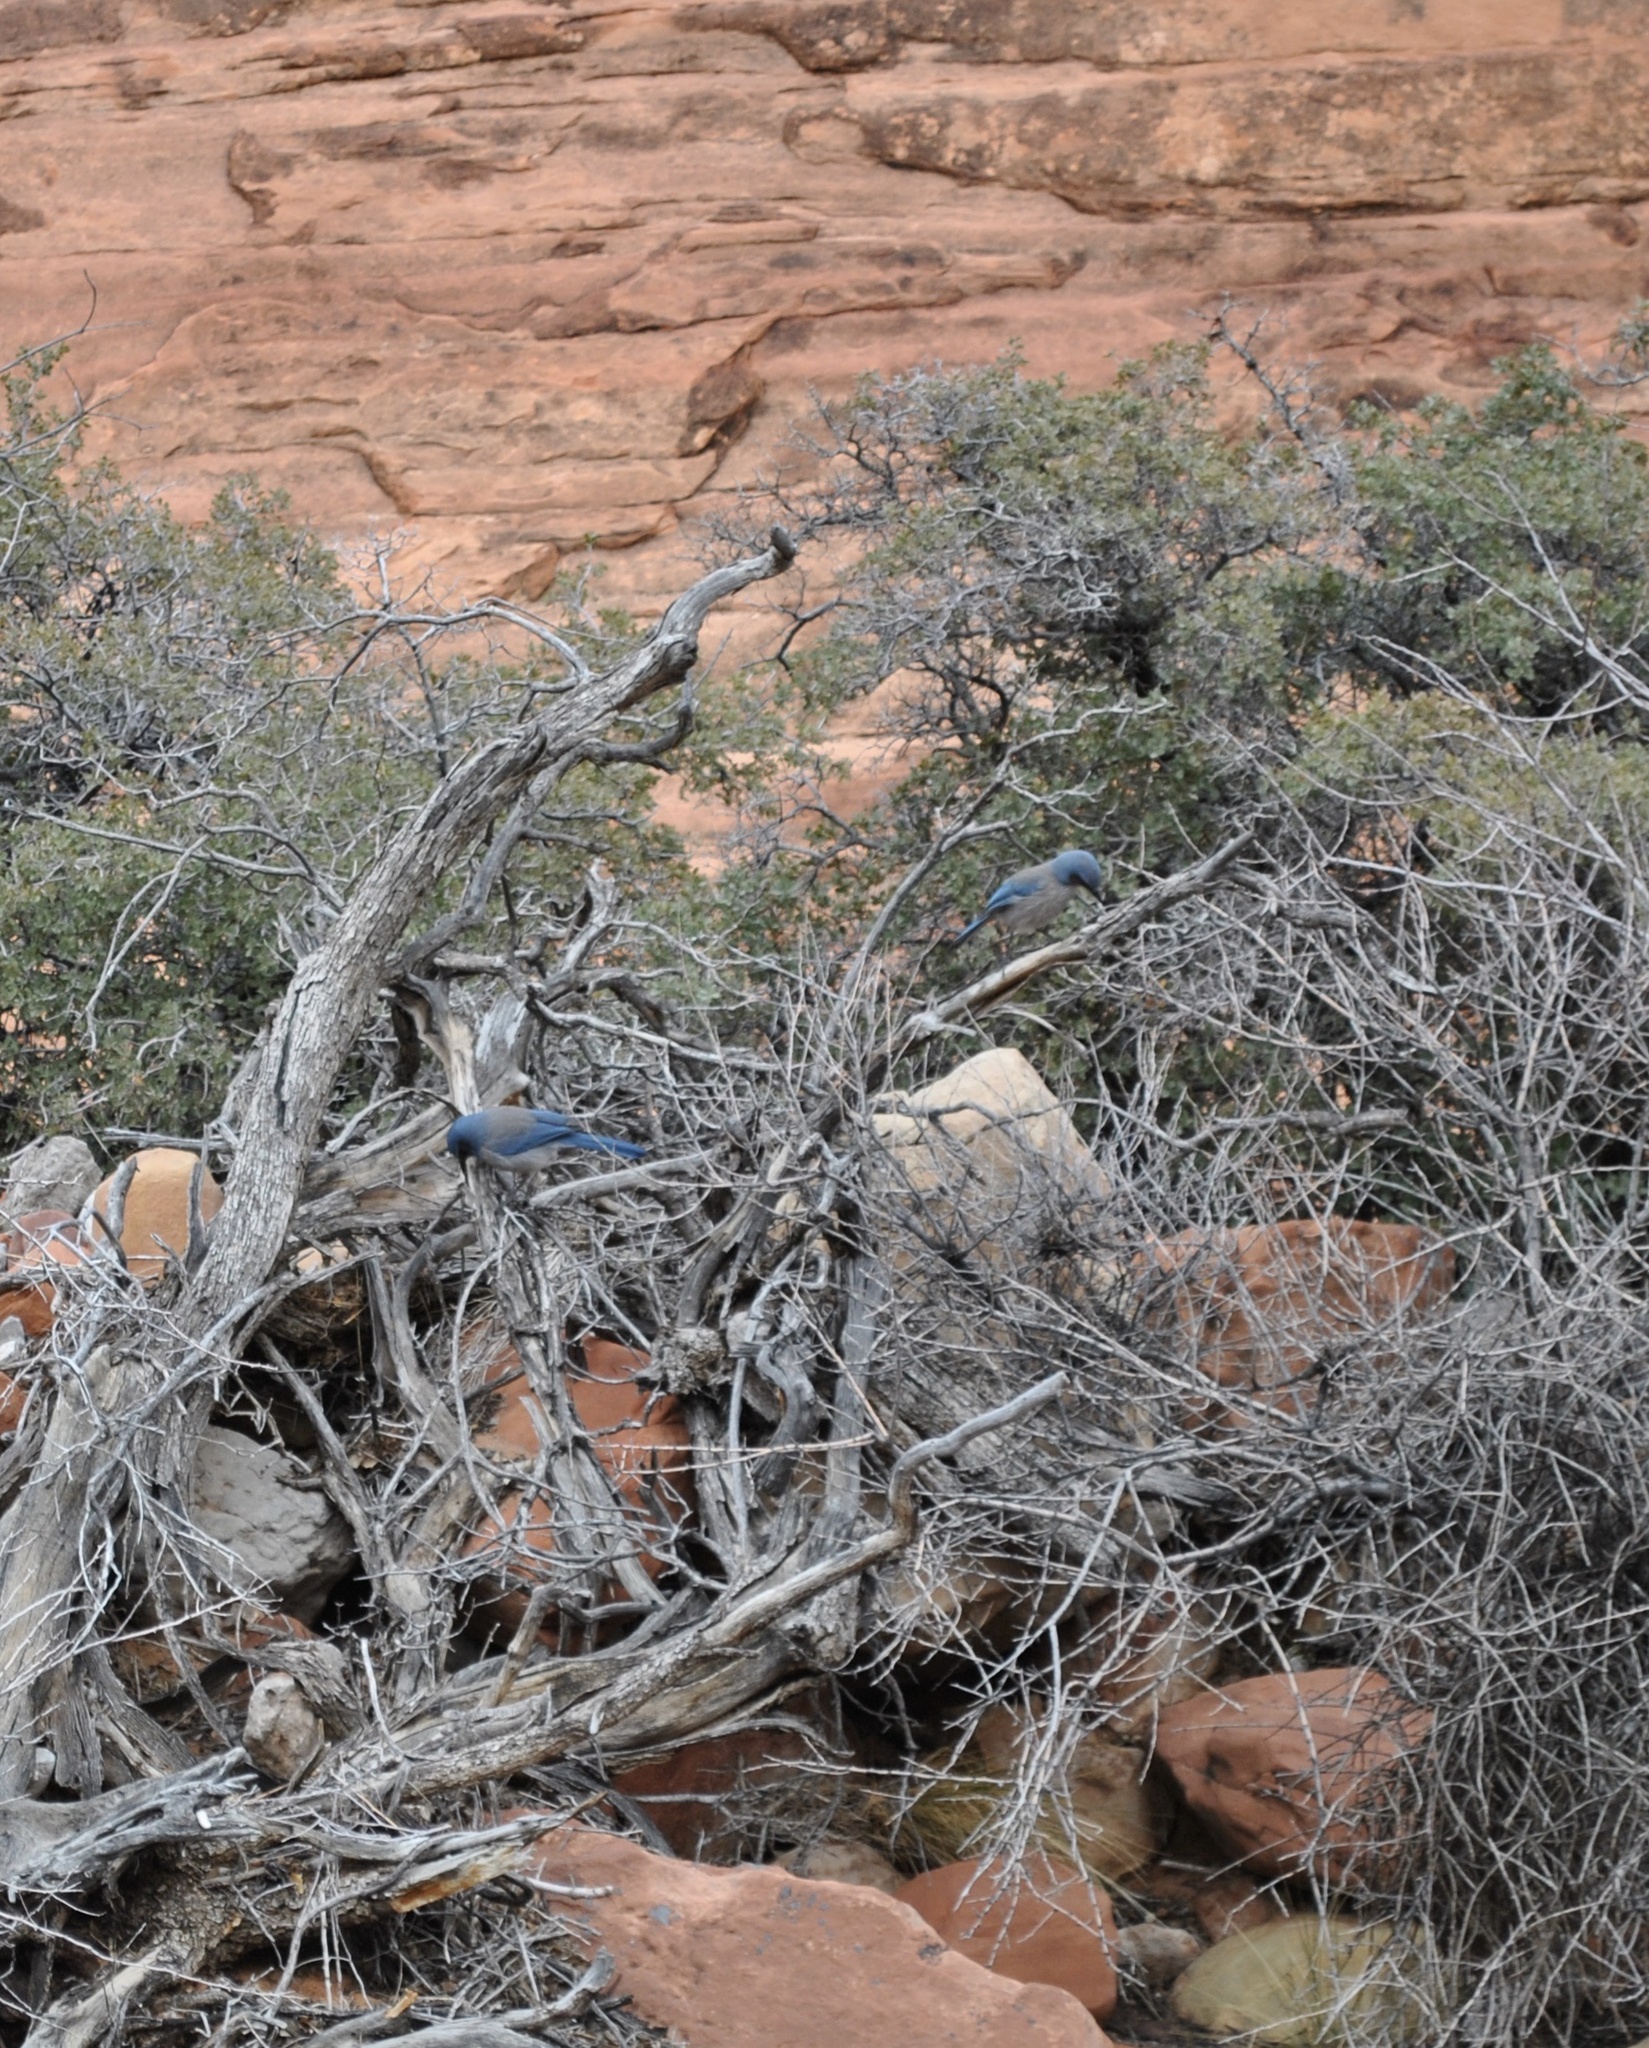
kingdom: Animalia
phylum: Chordata
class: Aves
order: Passeriformes
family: Corvidae
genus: Aphelocoma
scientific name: Aphelocoma woodhouseii
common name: Woodhouse's scrub-jay
